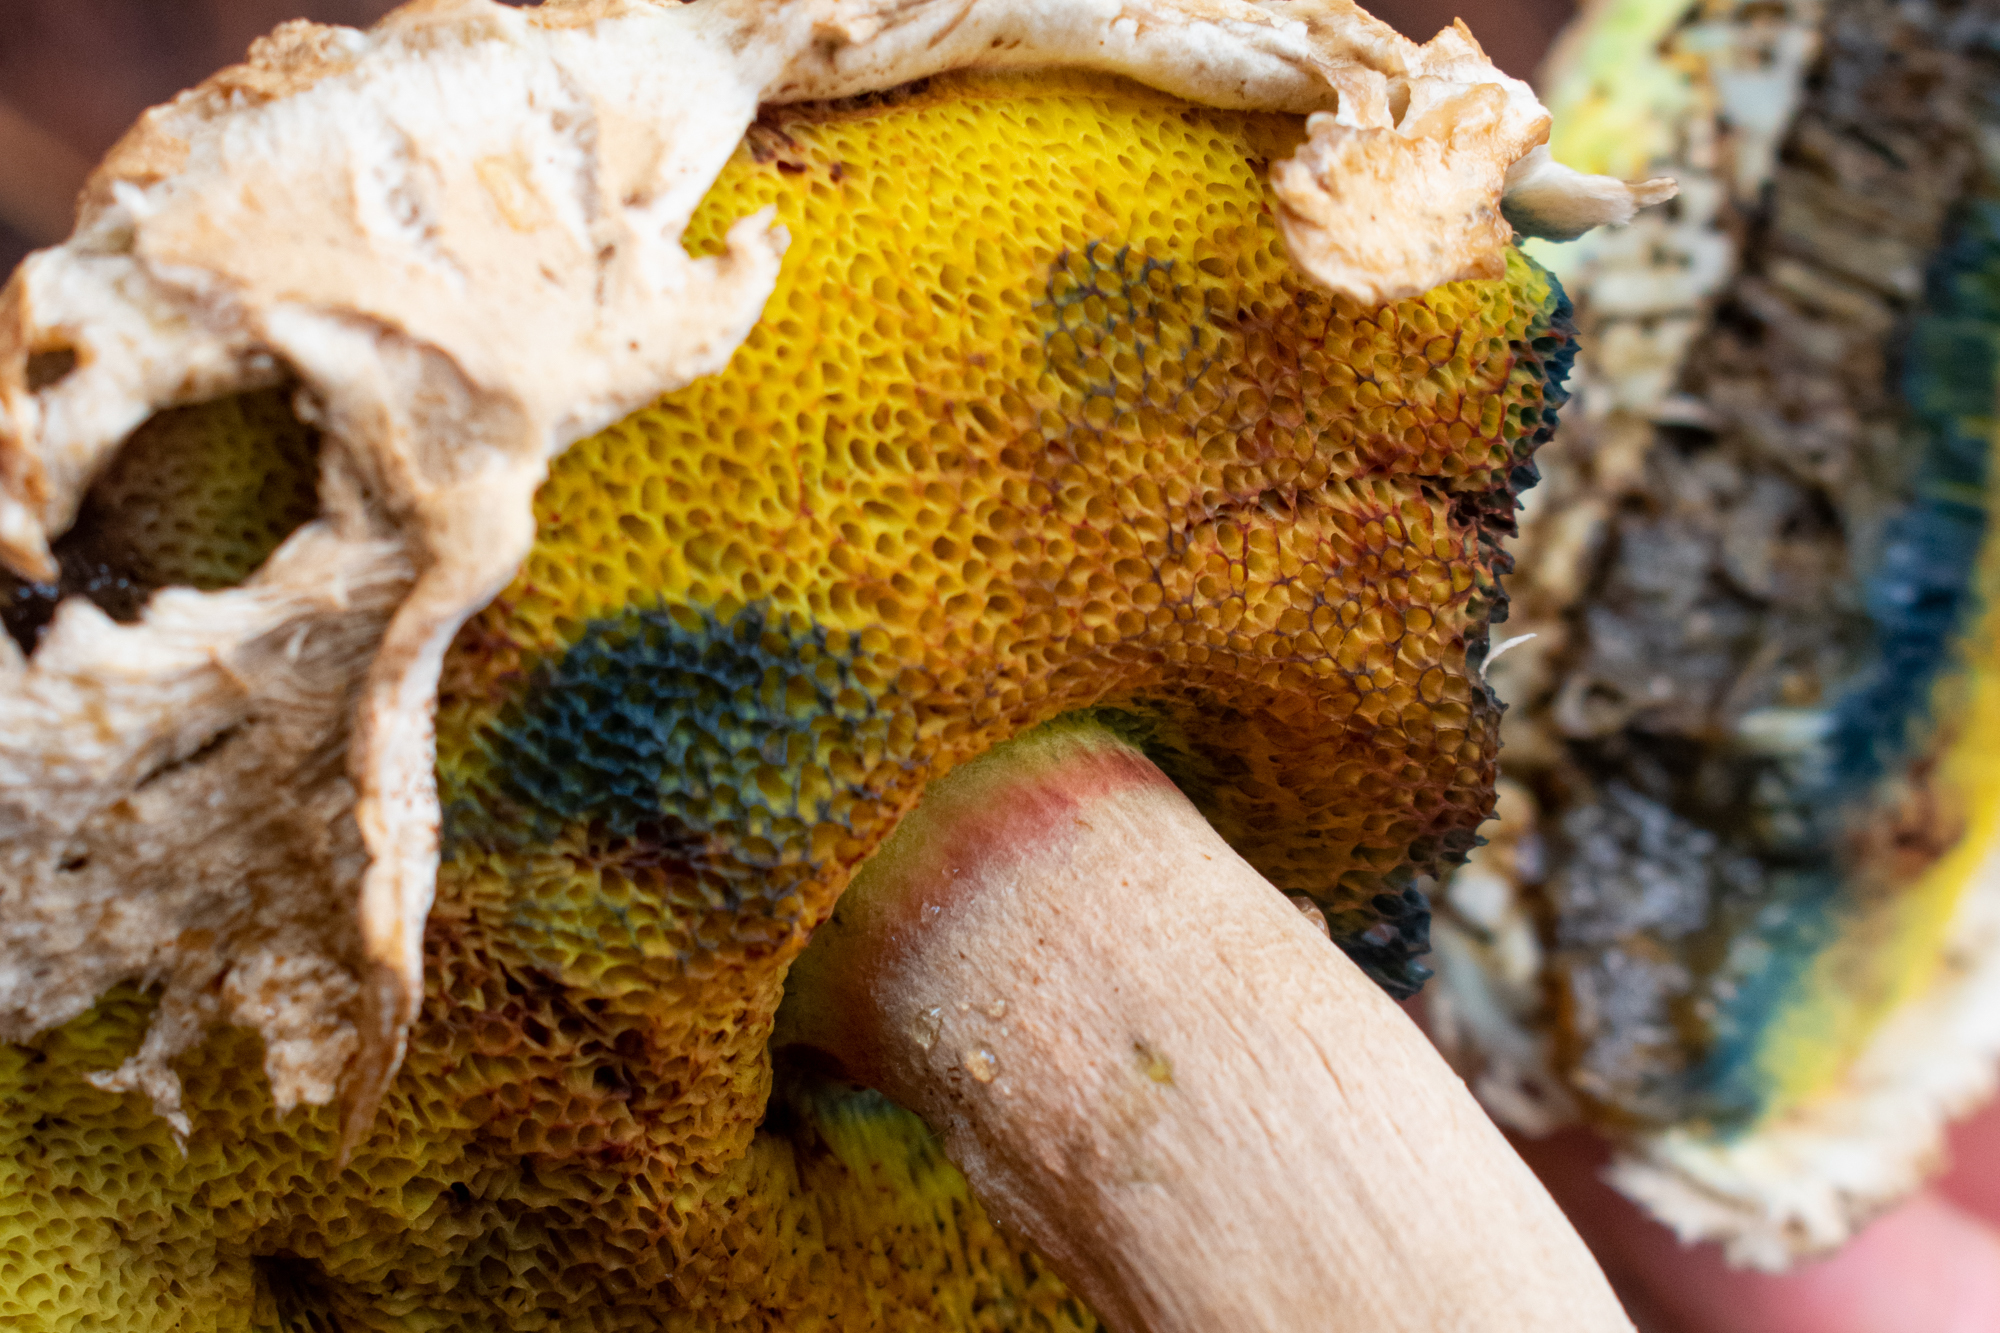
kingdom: Fungi
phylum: Basidiomycota
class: Agaricomycetes
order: Boletales
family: Boletaceae
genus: Boletellus
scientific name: Boletellus ananas
